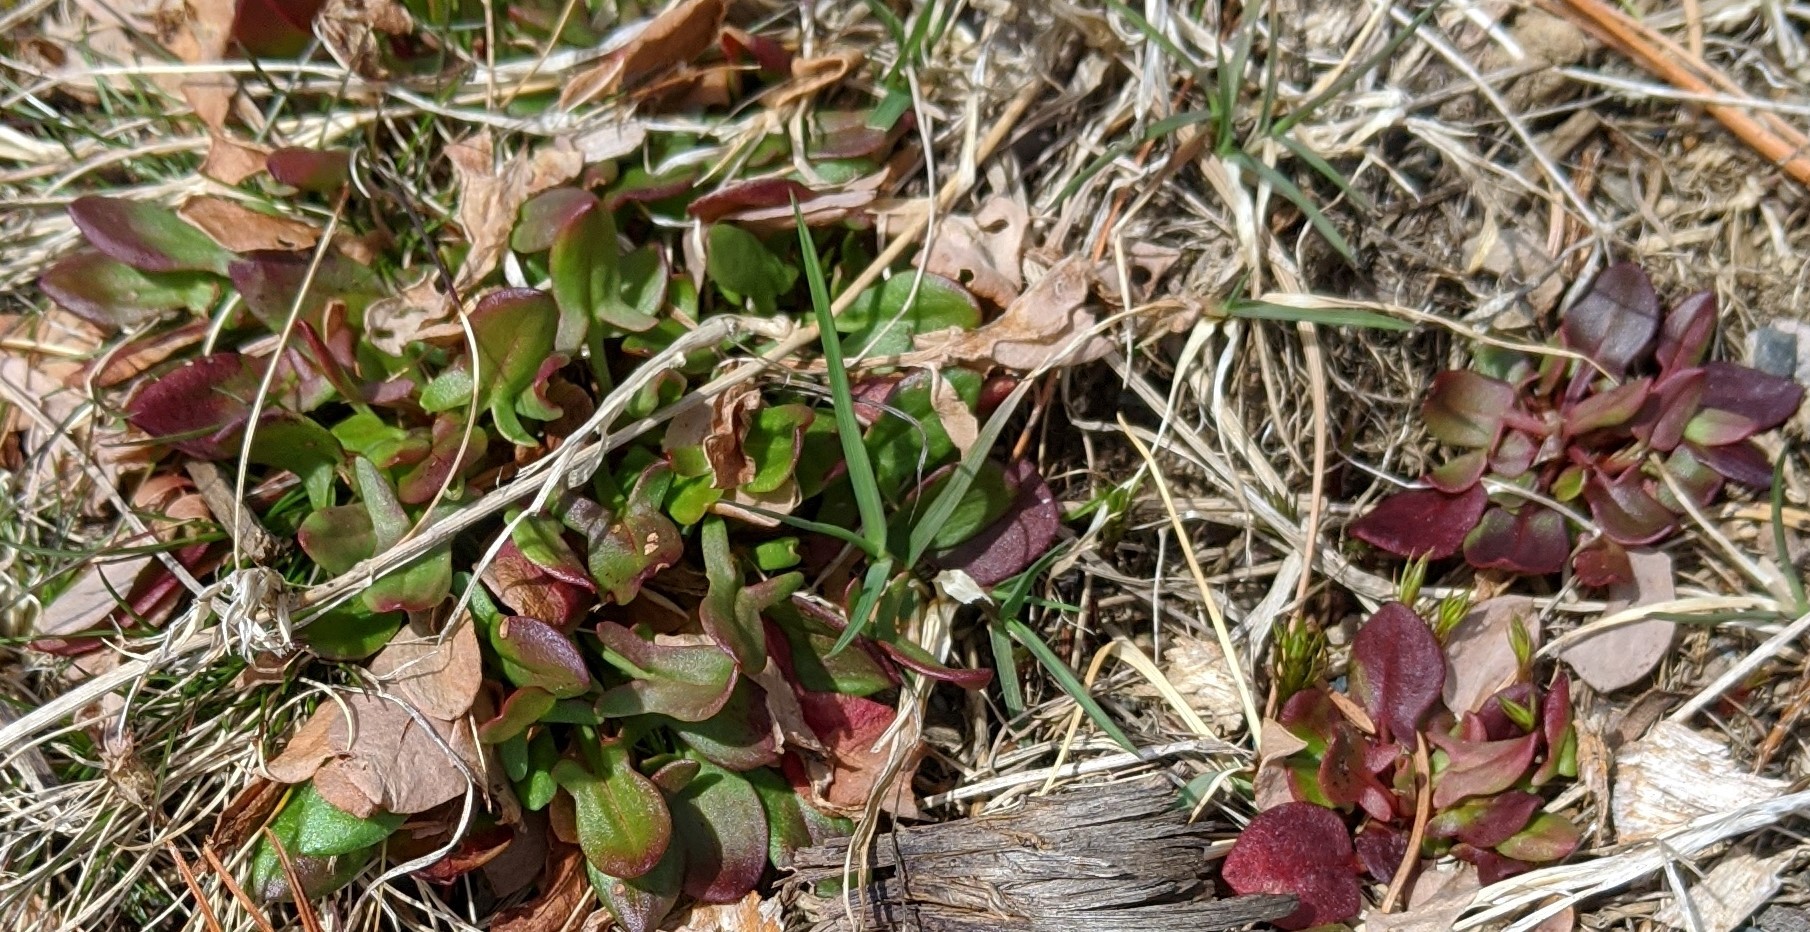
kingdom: Plantae
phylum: Tracheophyta
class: Magnoliopsida
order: Caryophyllales
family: Polygonaceae
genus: Rumex
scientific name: Rumex acetosella
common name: Common sheep sorrel
